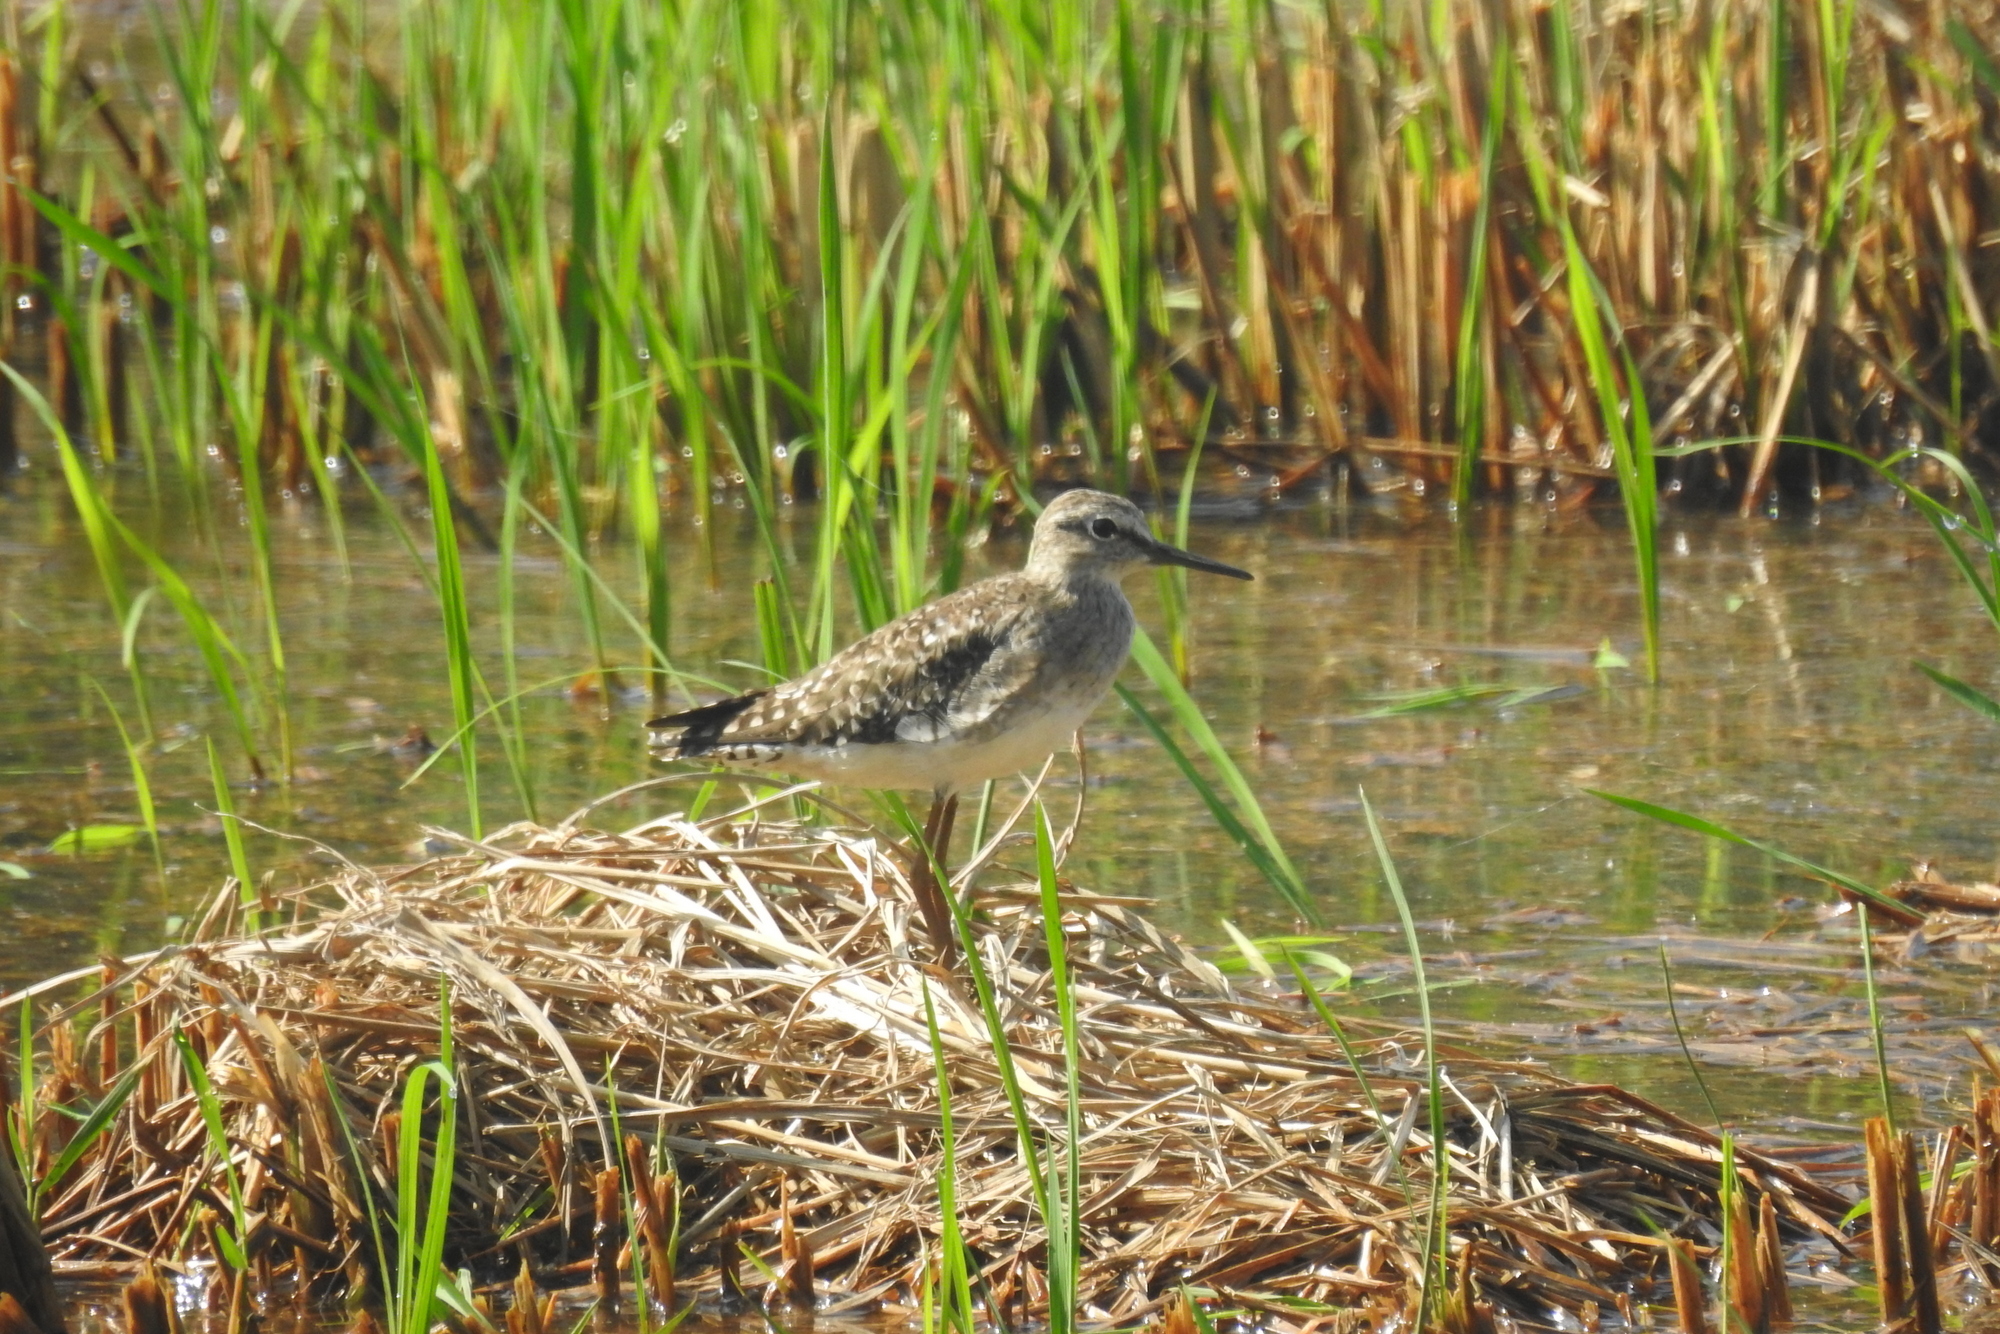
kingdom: Animalia
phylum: Chordata
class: Aves
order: Charadriiformes
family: Scolopacidae
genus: Tringa
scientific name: Tringa glareola
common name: Wood sandpiper
